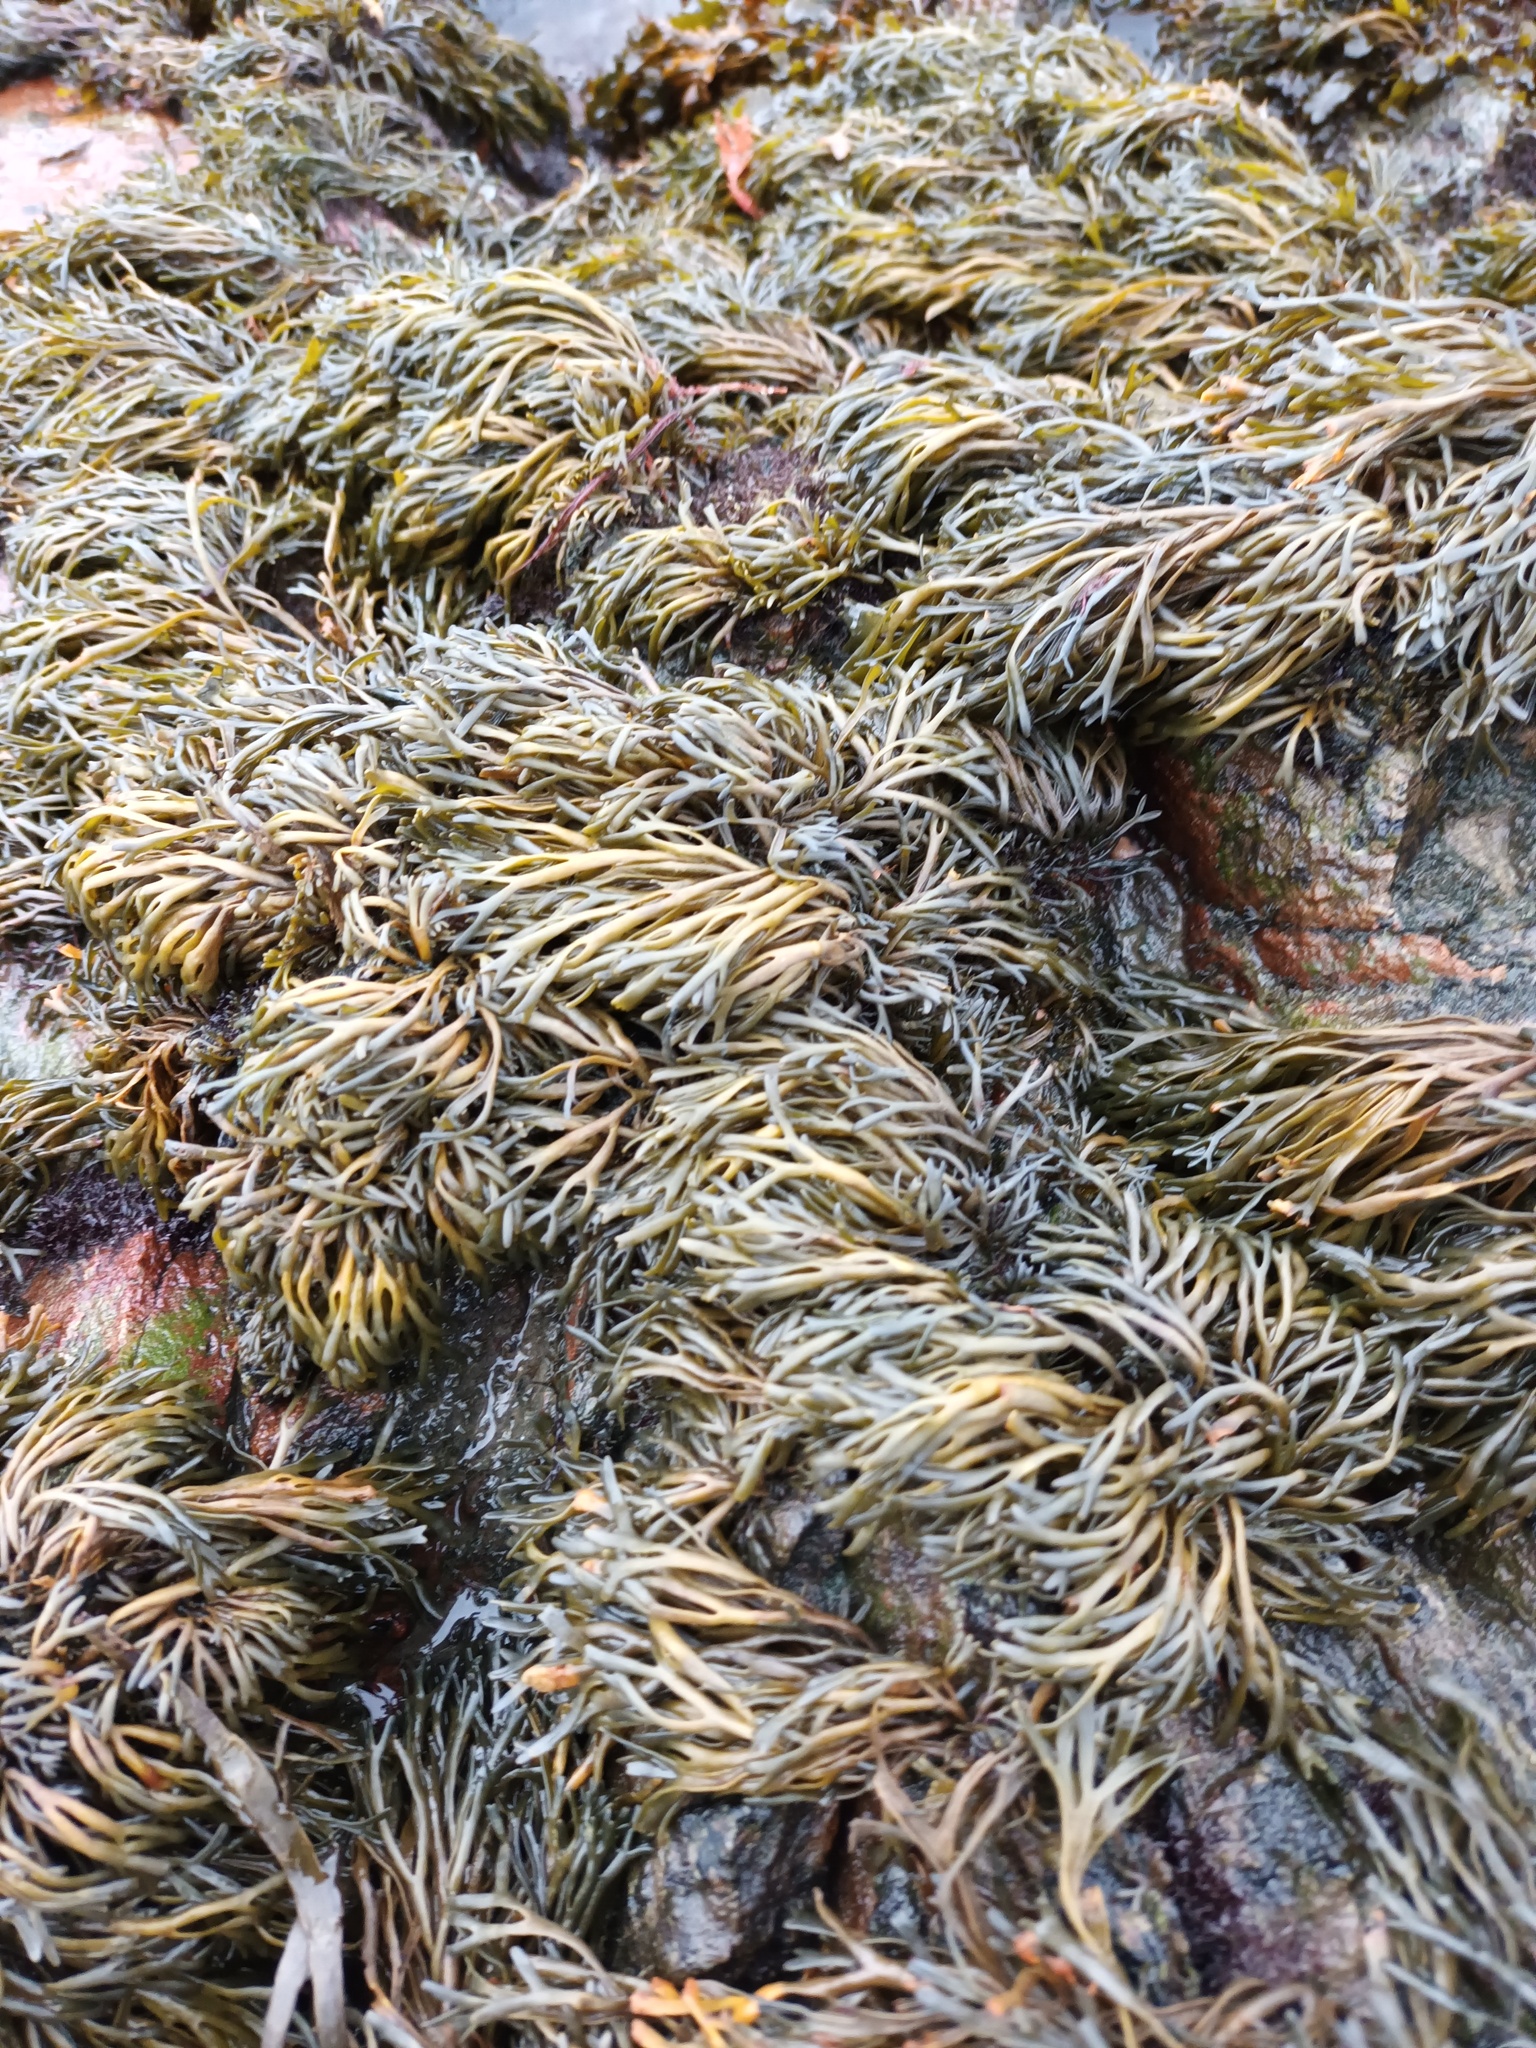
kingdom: Chromista
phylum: Ochrophyta
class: Phaeophyceae
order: Fucales
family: Fucaceae
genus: Pelvetia
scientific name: Pelvetia canaliculata
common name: Channelled wrack
